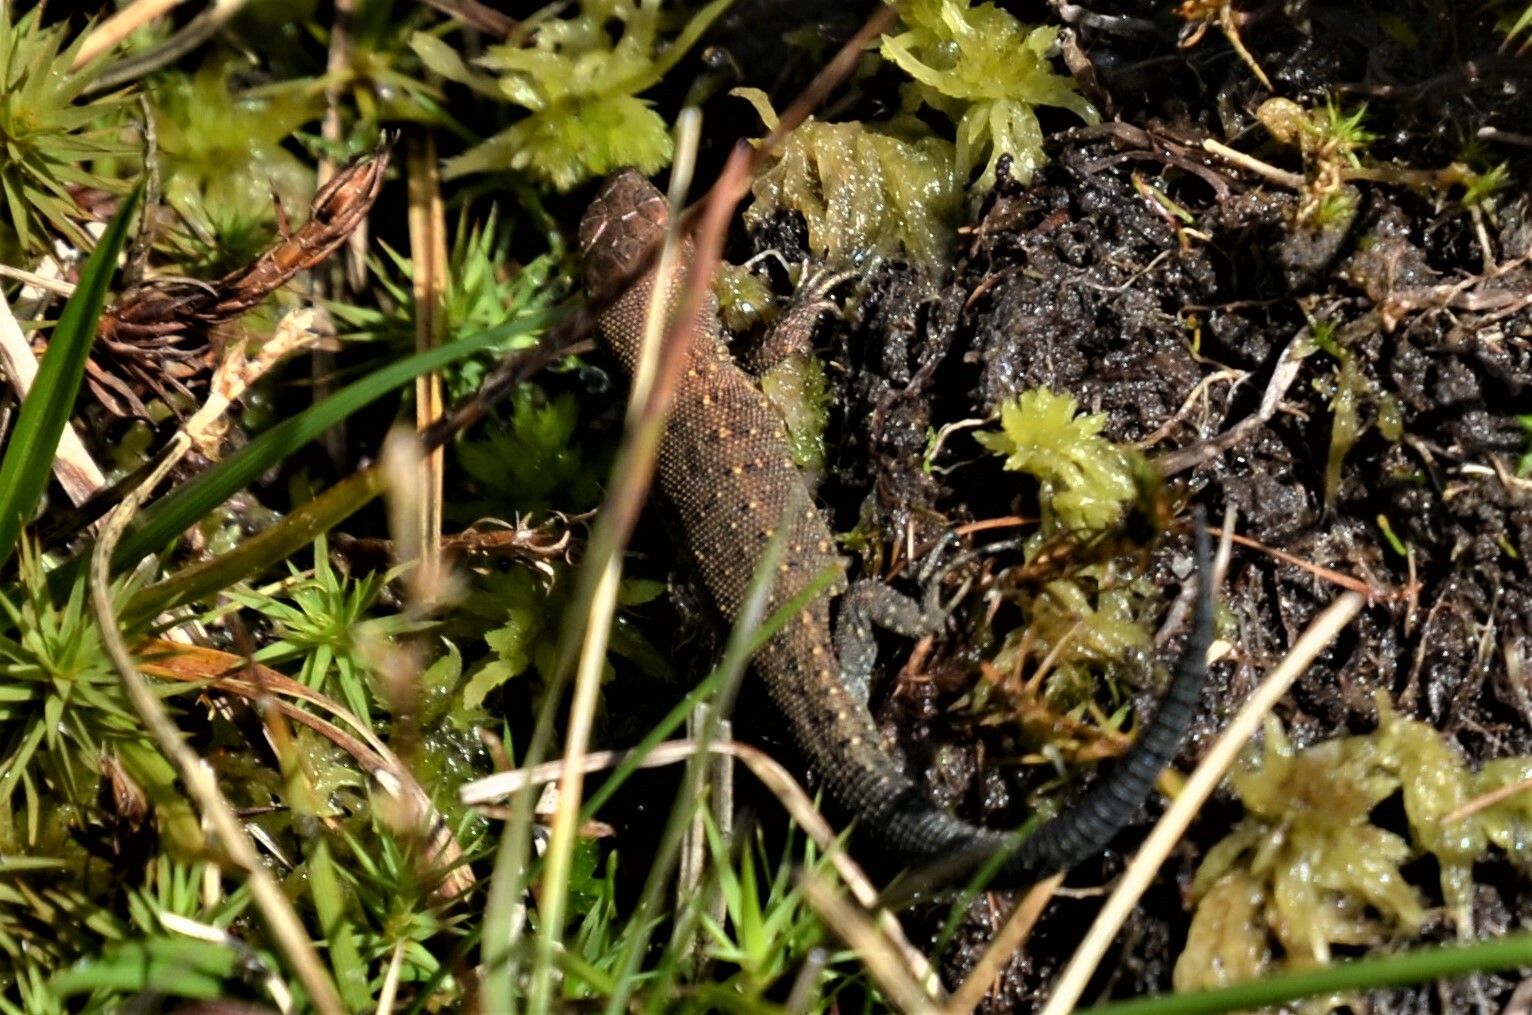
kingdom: Animalia
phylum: Chordata
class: Squamata
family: Lacertidae
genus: Zootoca
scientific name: Zootoca vivipara
